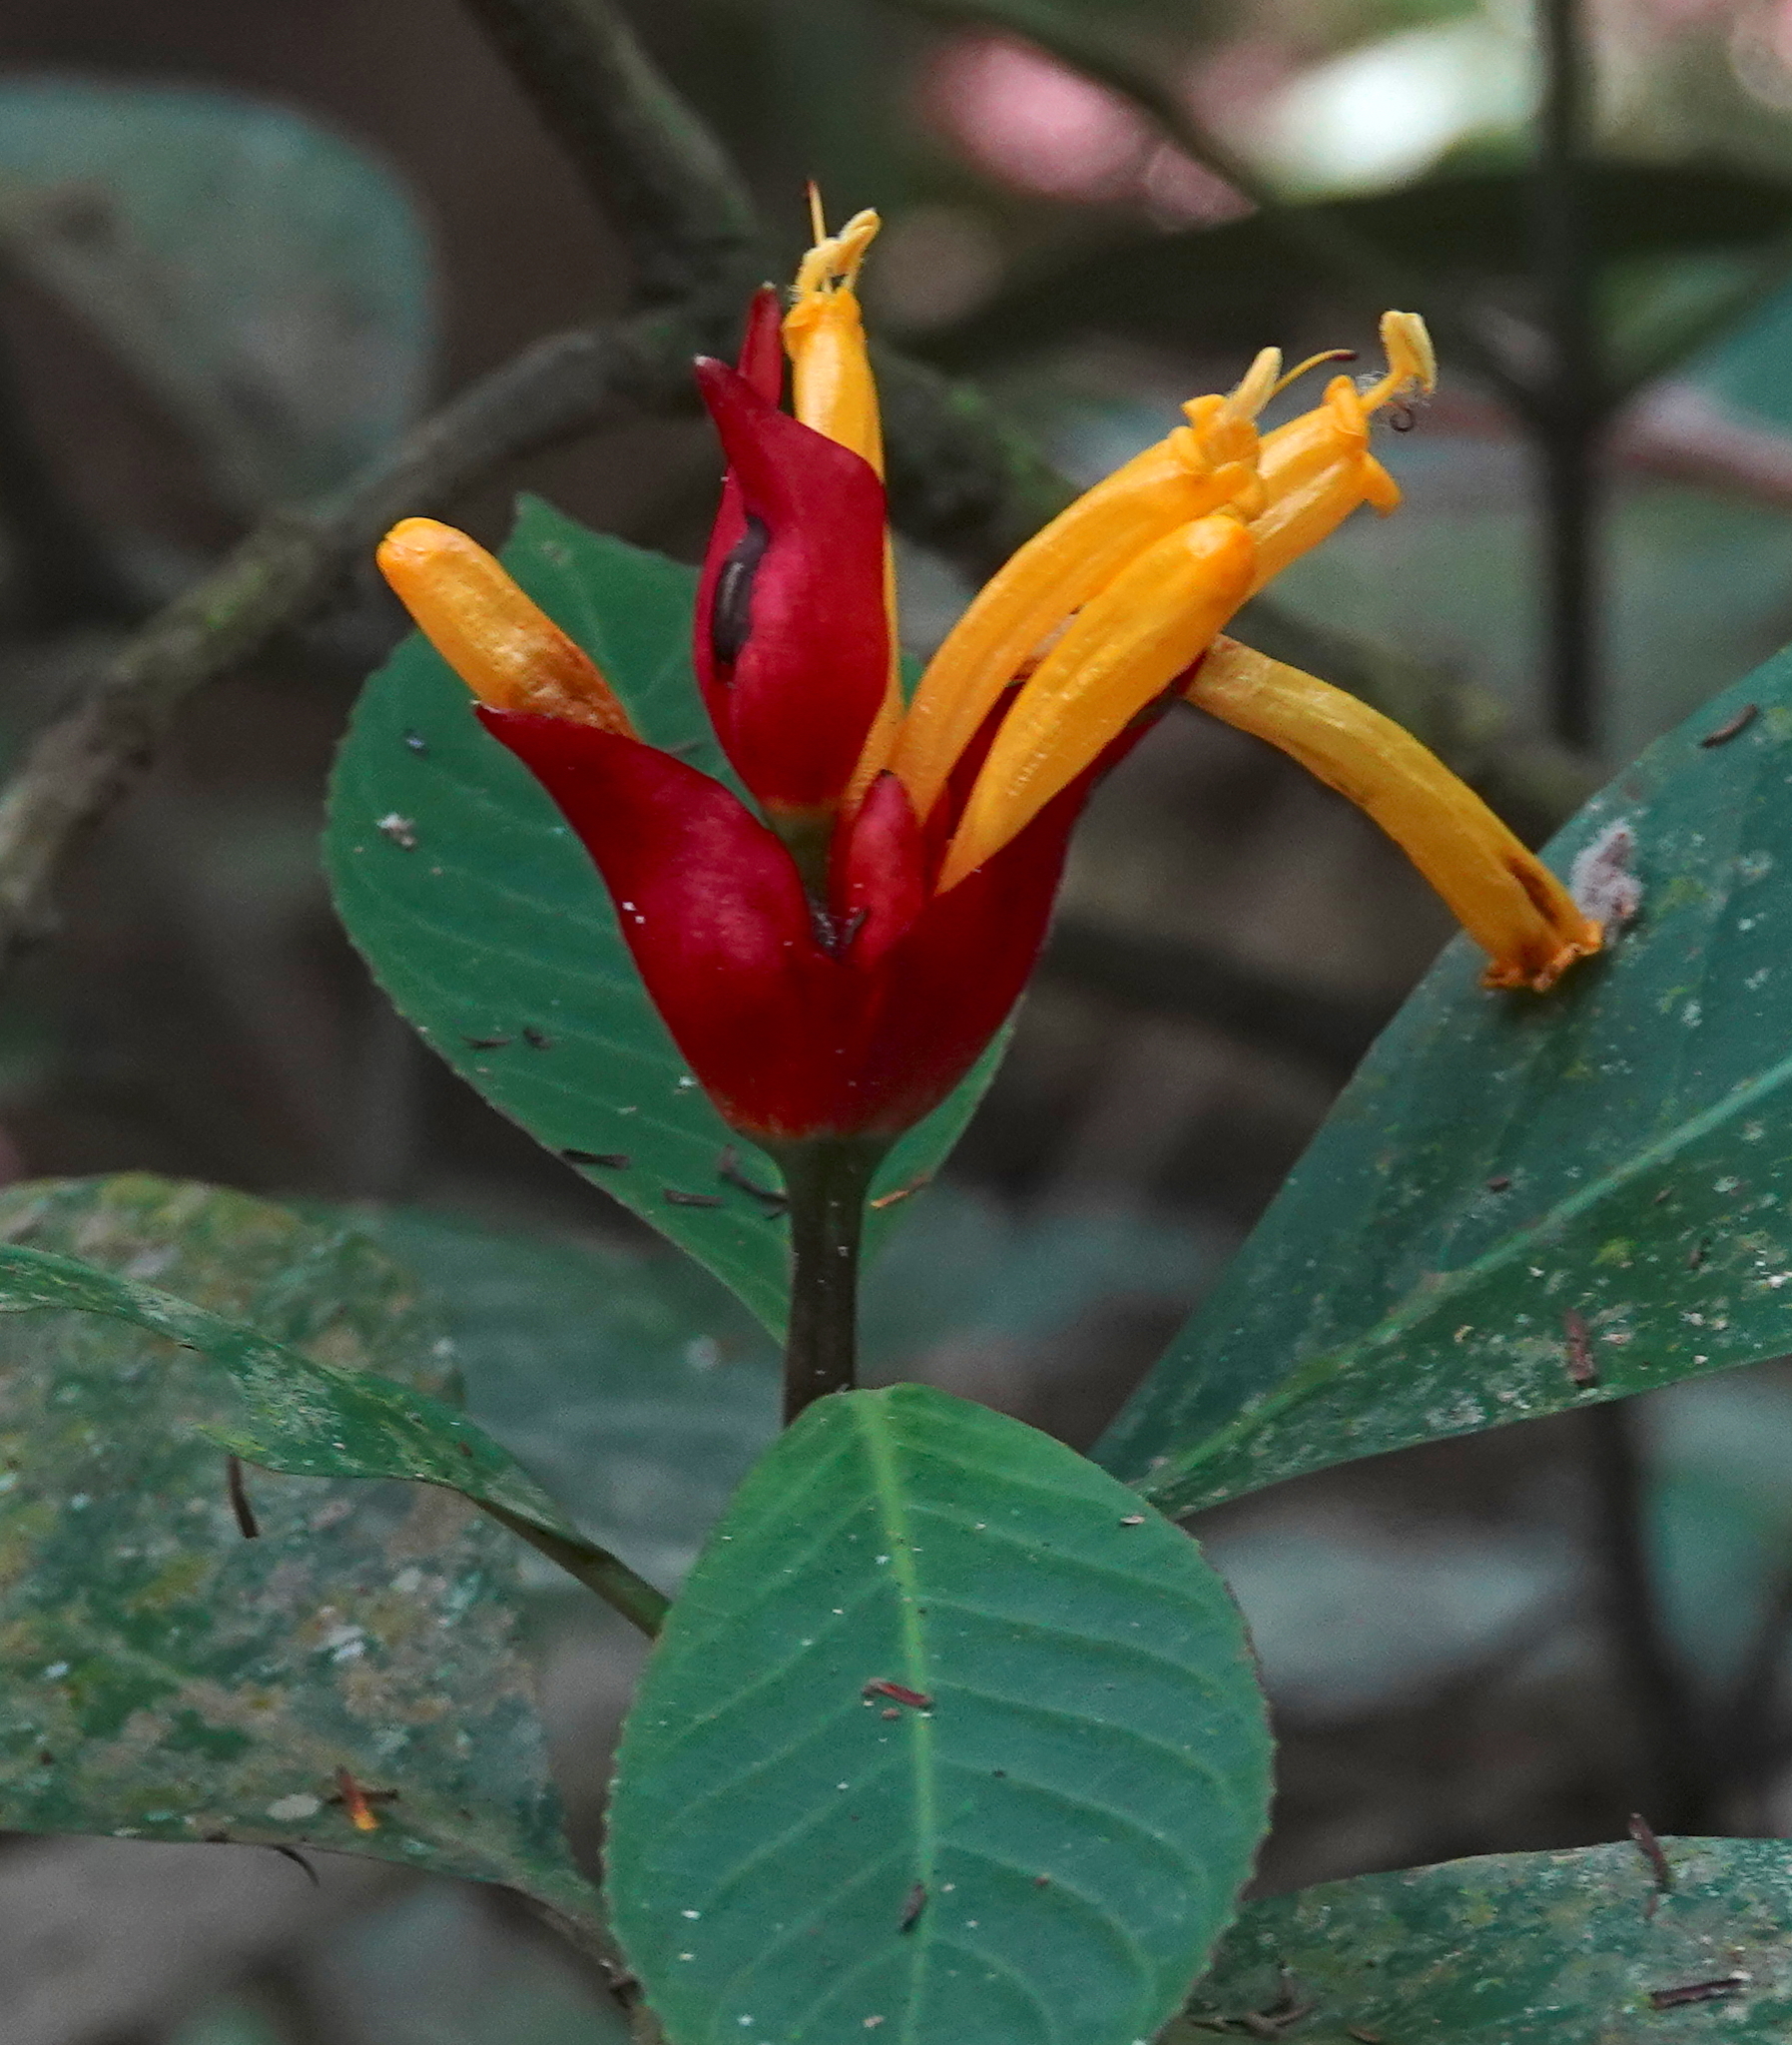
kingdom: Plantae
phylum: Tracheophyta
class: Magnoliopsida
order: Lamiales
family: Acanthaceae
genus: Sanchezia
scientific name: Sanchezia macrocnemis
